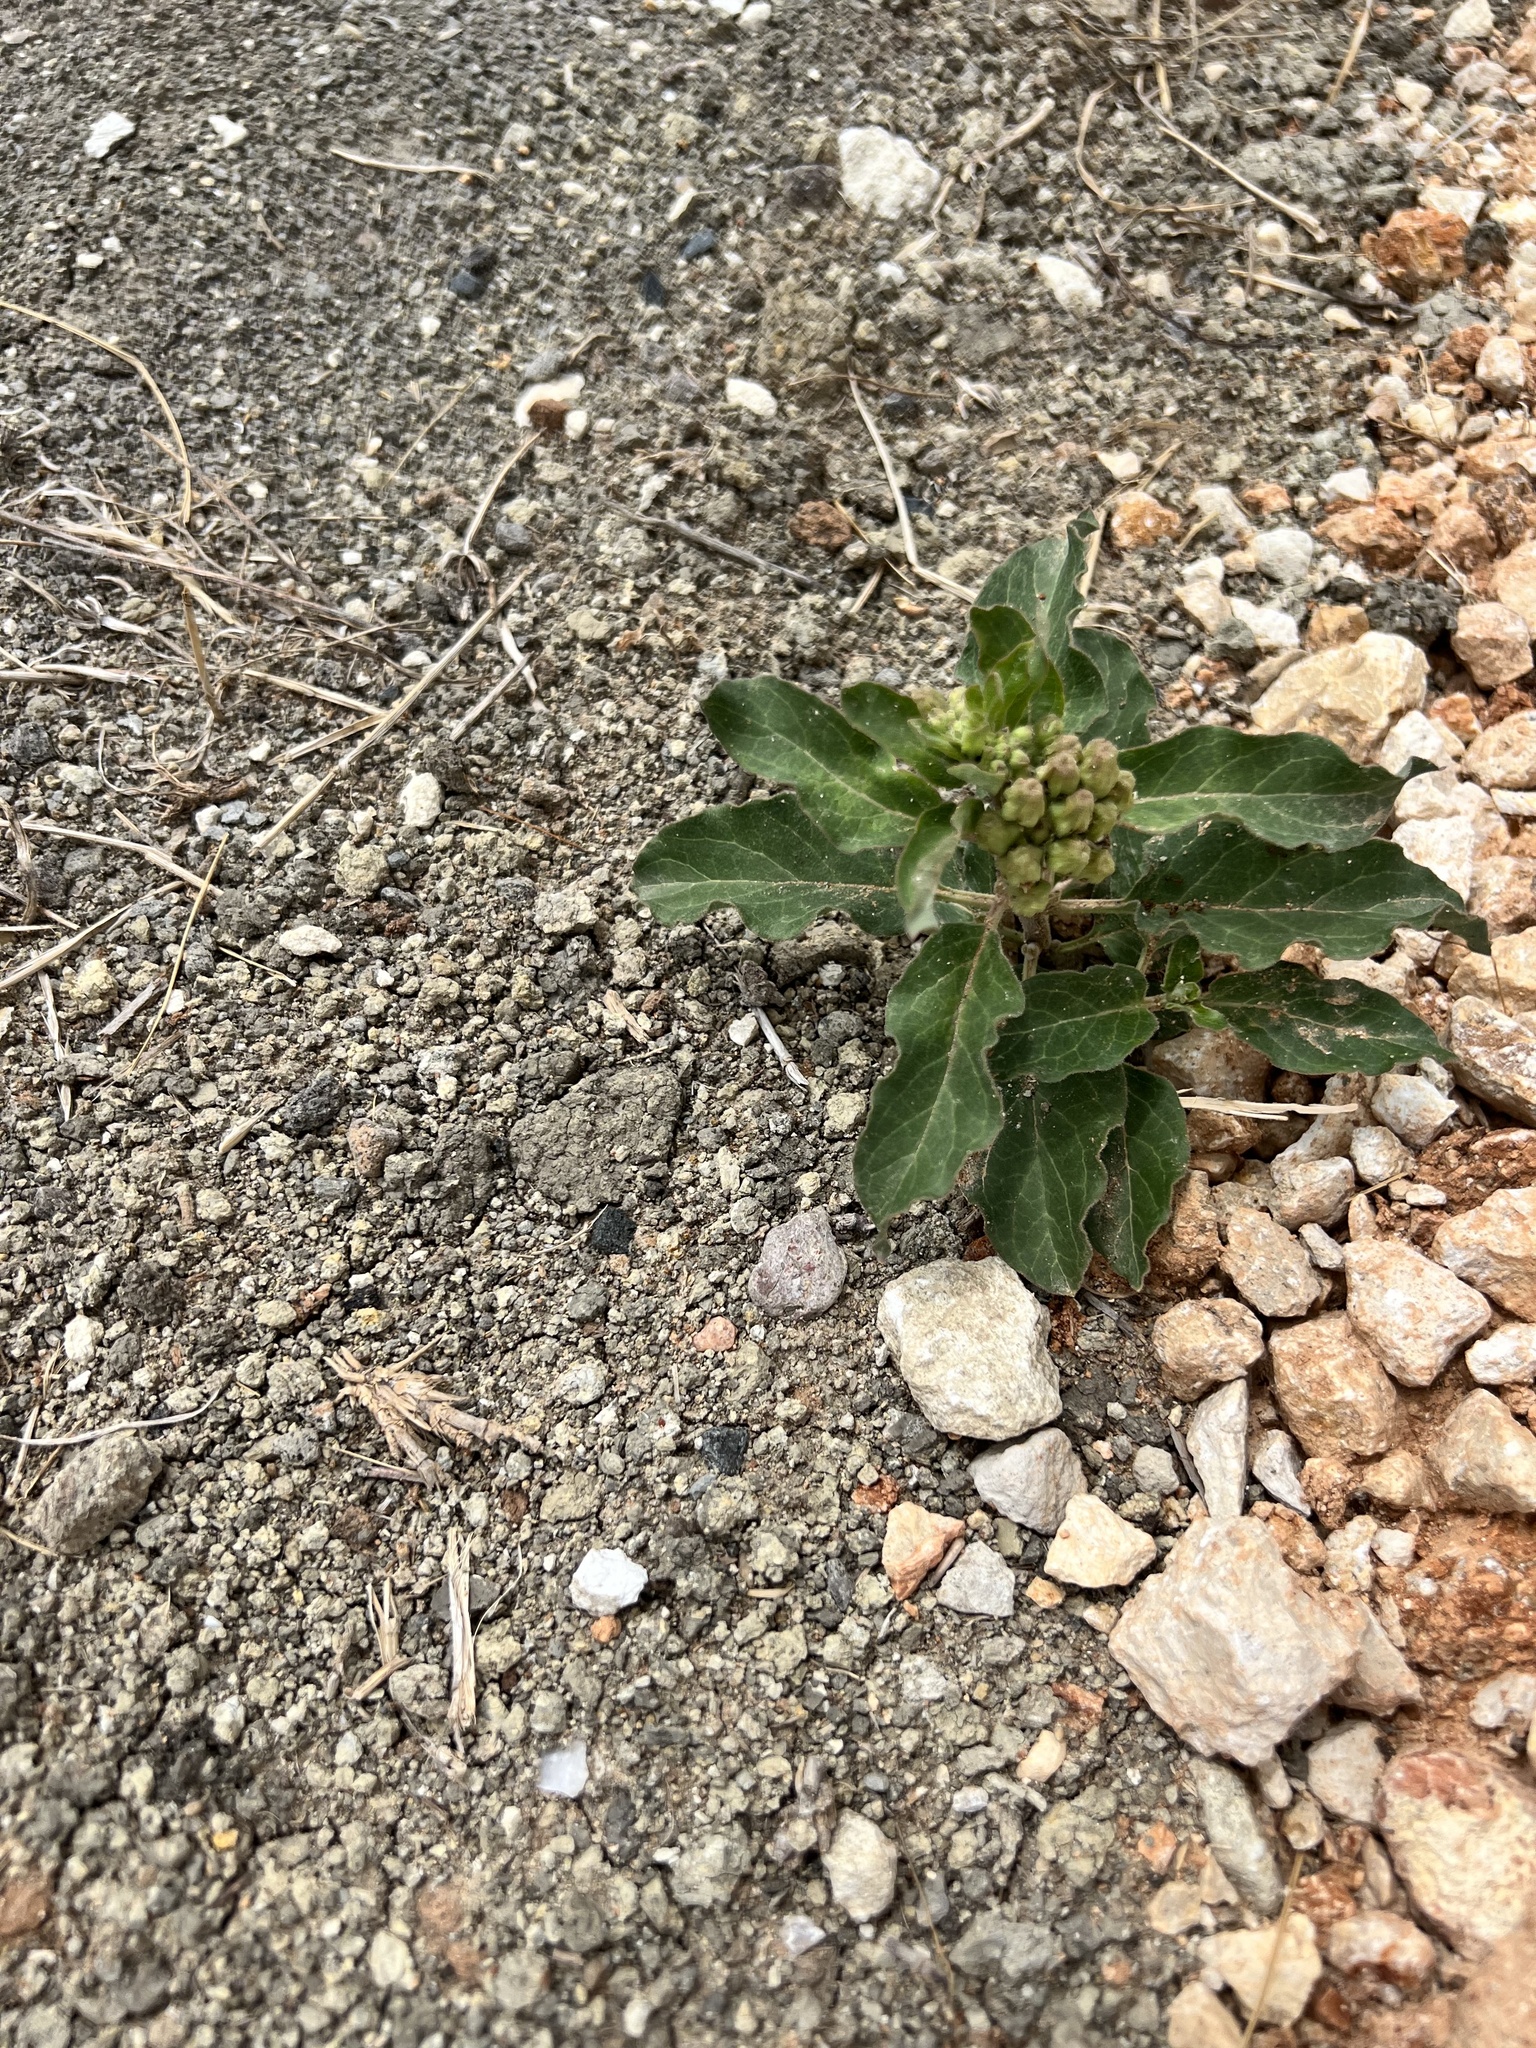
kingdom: Plantae
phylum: Tracheophyta
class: Magnoliopsida
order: Gentianales
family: Apocynaceae
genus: Asclepias
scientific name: Asclepias oenotheroides
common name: Zizotes milkweed
